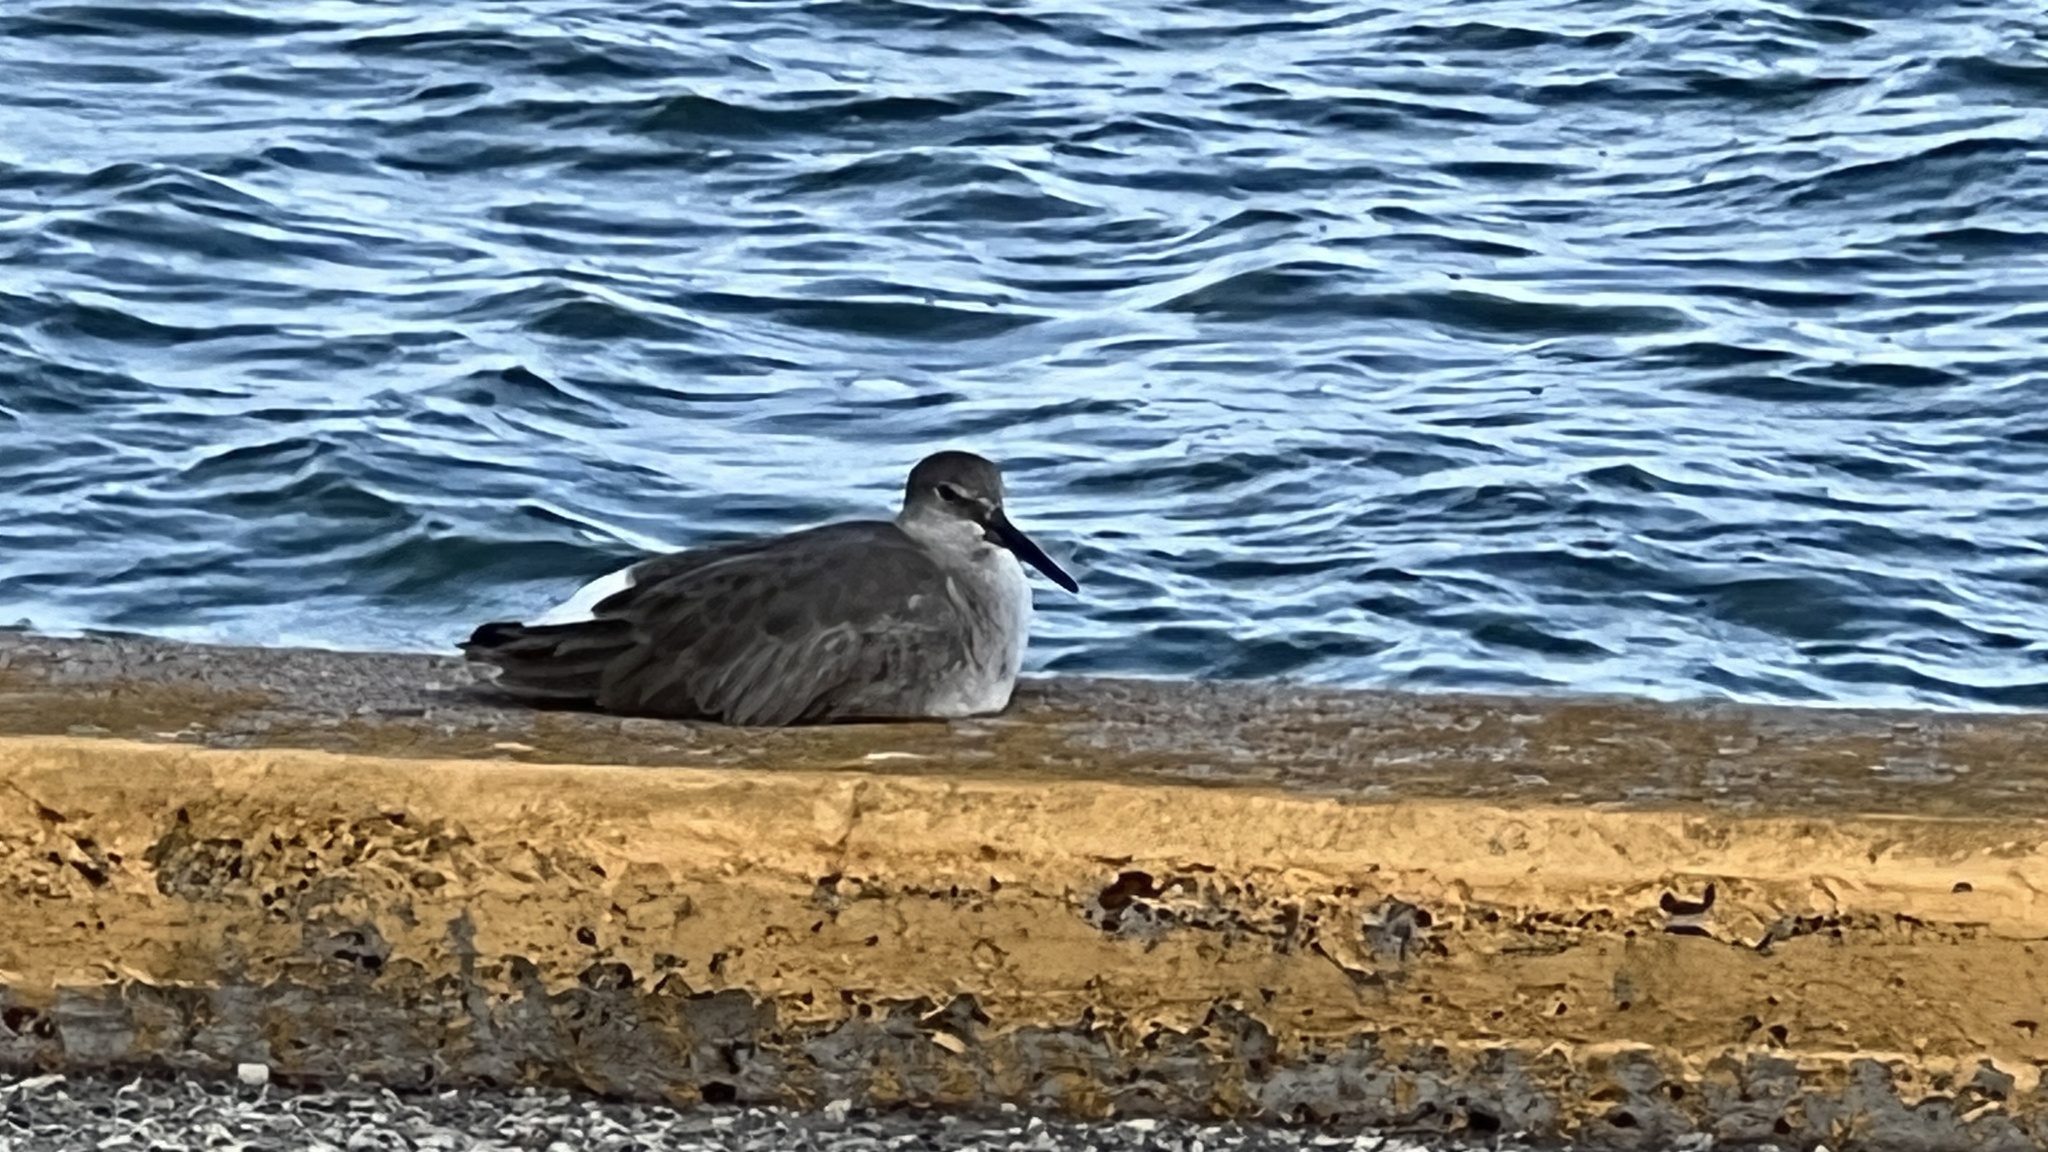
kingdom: Animalia
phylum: Chordata
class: Aves
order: Charadriiformes
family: Scolopacidae
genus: Tringa
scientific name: Tringa semipalmata
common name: Willet
